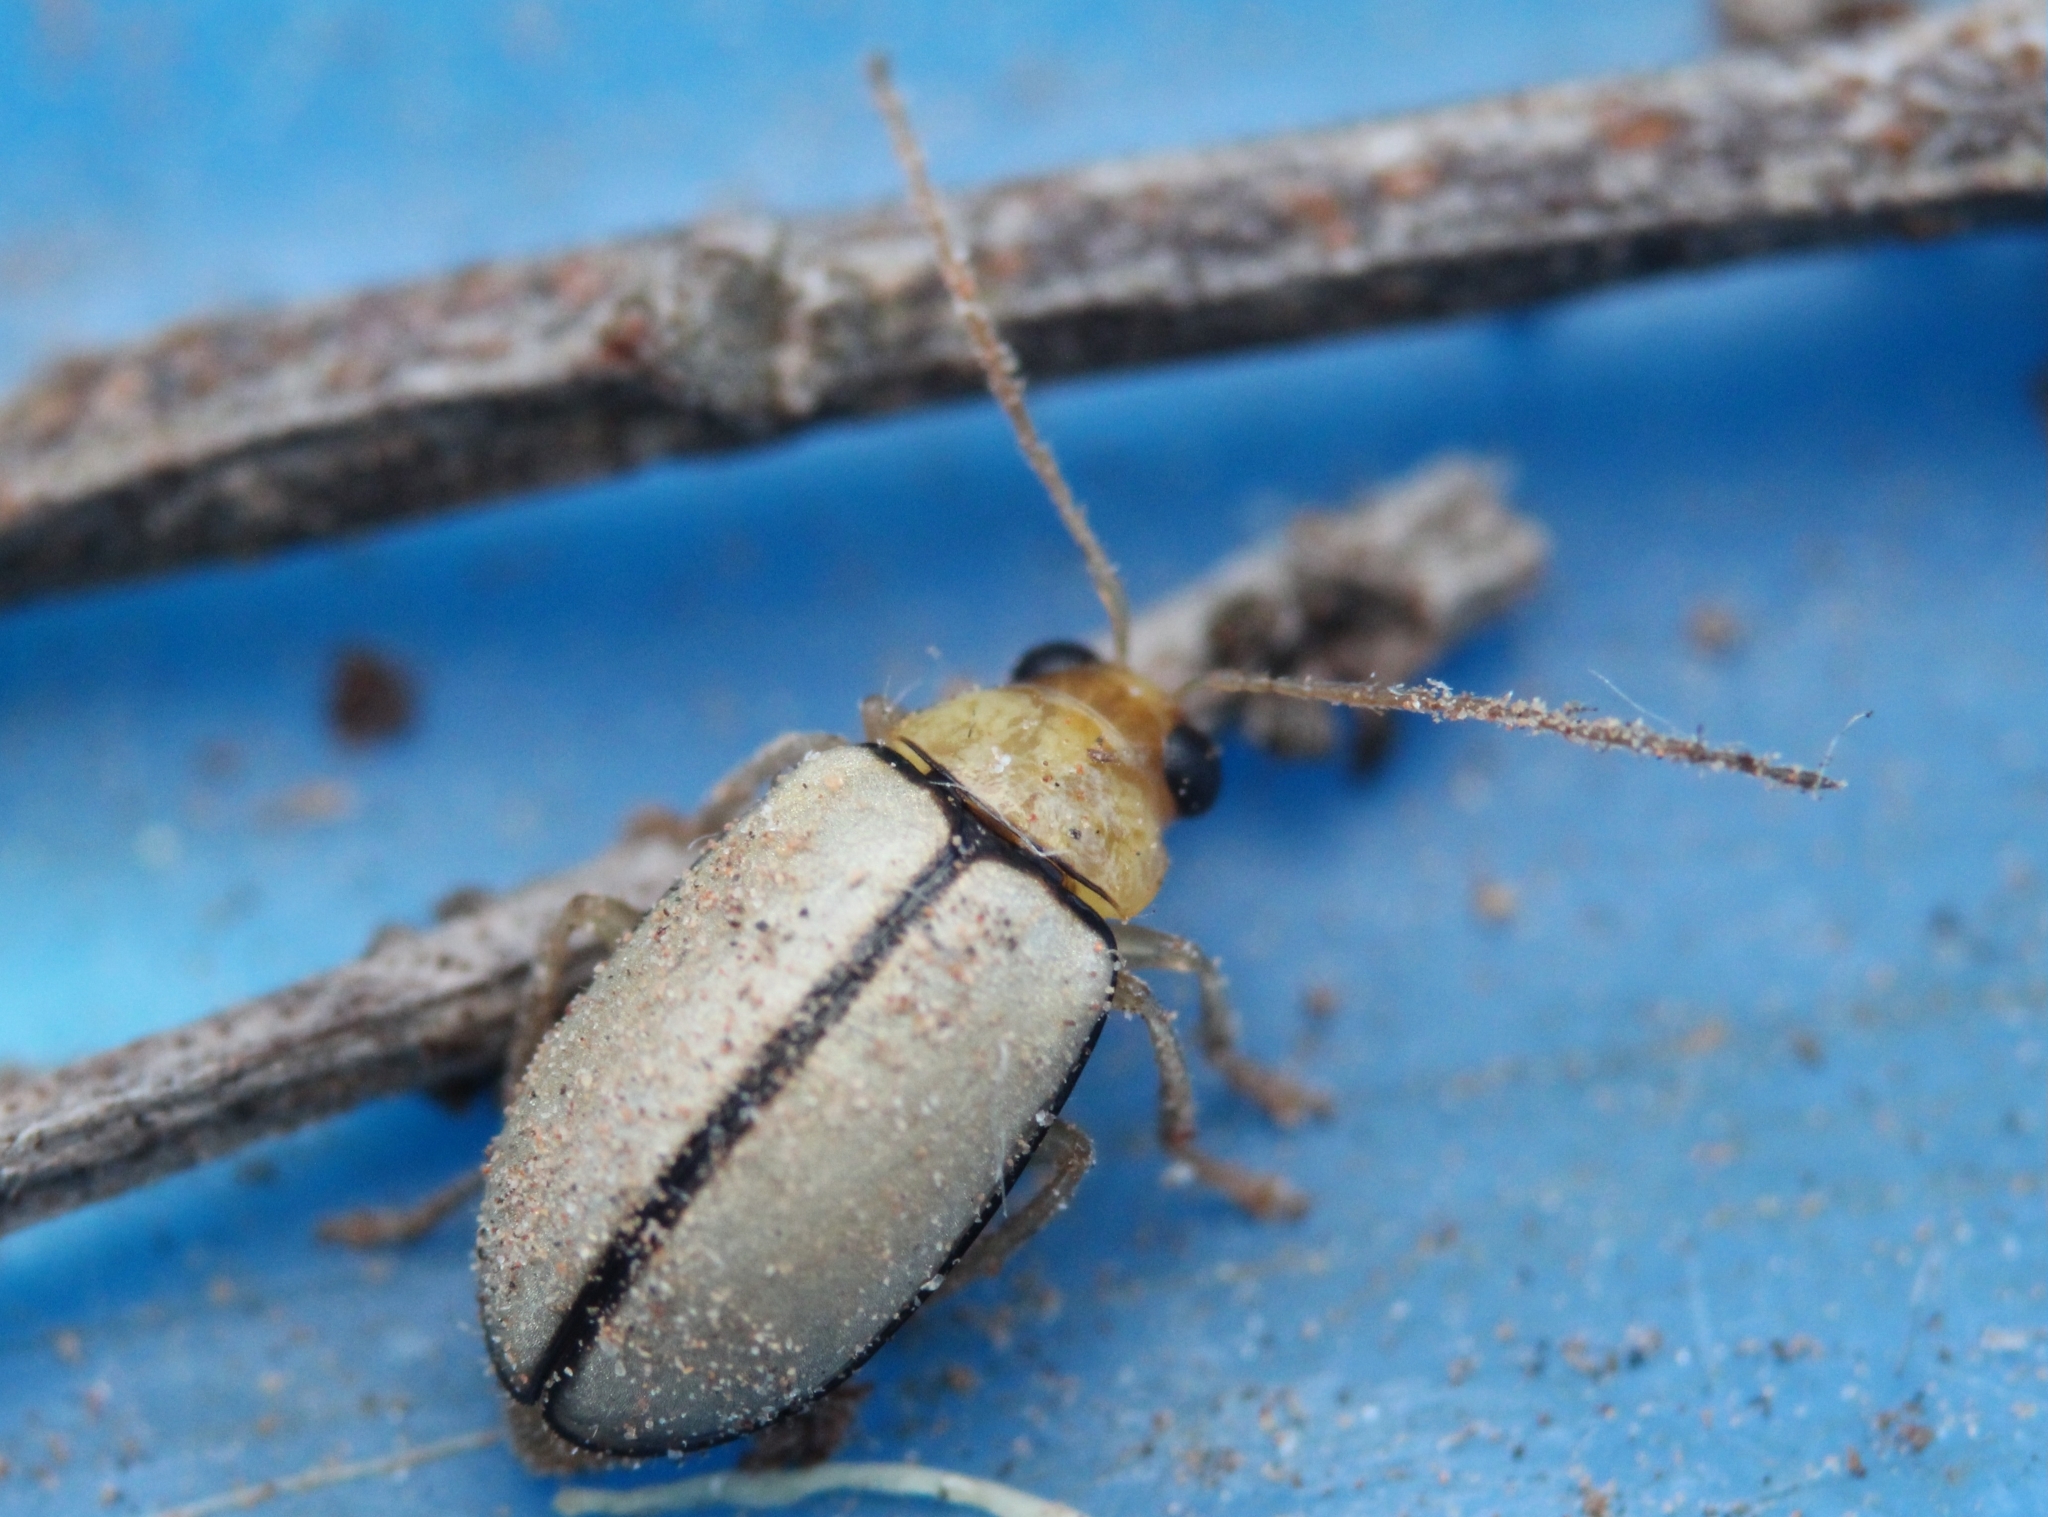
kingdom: Animalia
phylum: Arthropoda
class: Insecta
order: Coleoptera
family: Chrysomelidae
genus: Panafrolepta
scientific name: Panafrolepta
